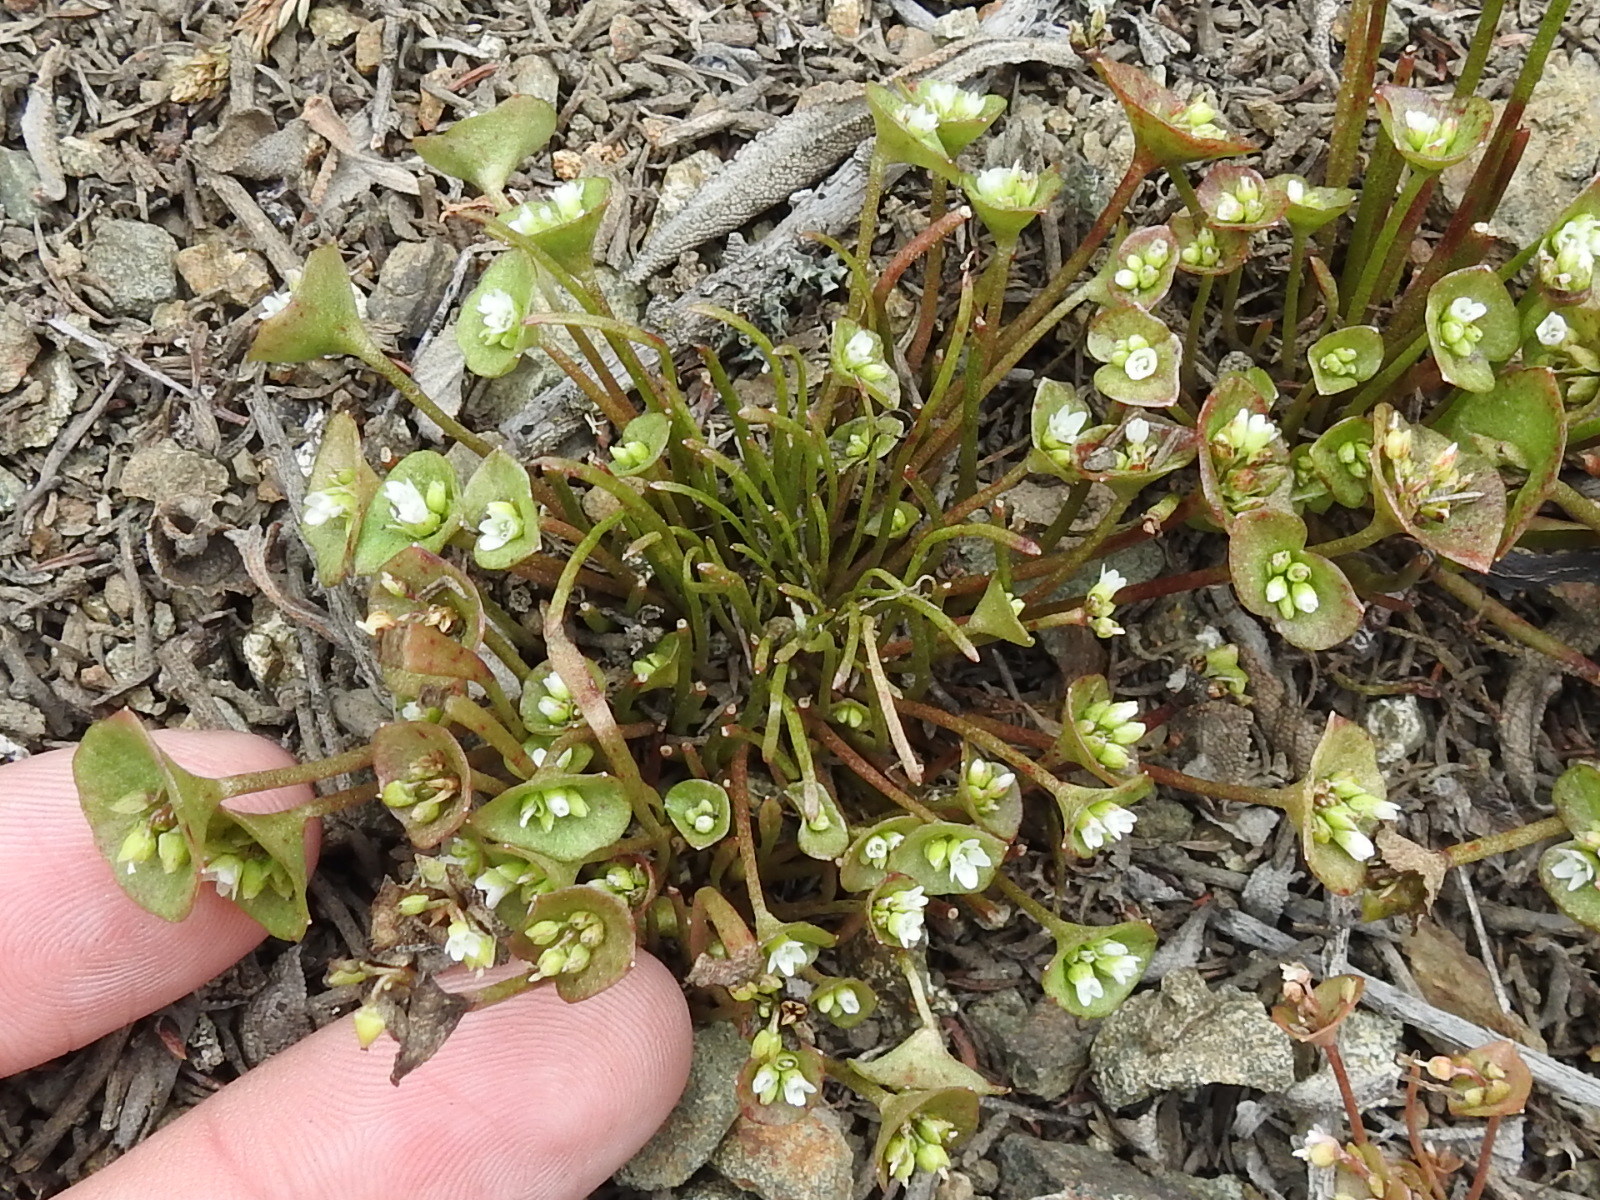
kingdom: Plantae
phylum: Tracheophyta
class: Magnoliopsida
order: Caryophyllales
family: Montiaceae
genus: Claytonia
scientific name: Claytonia parviflora
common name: Indian-lettuce
